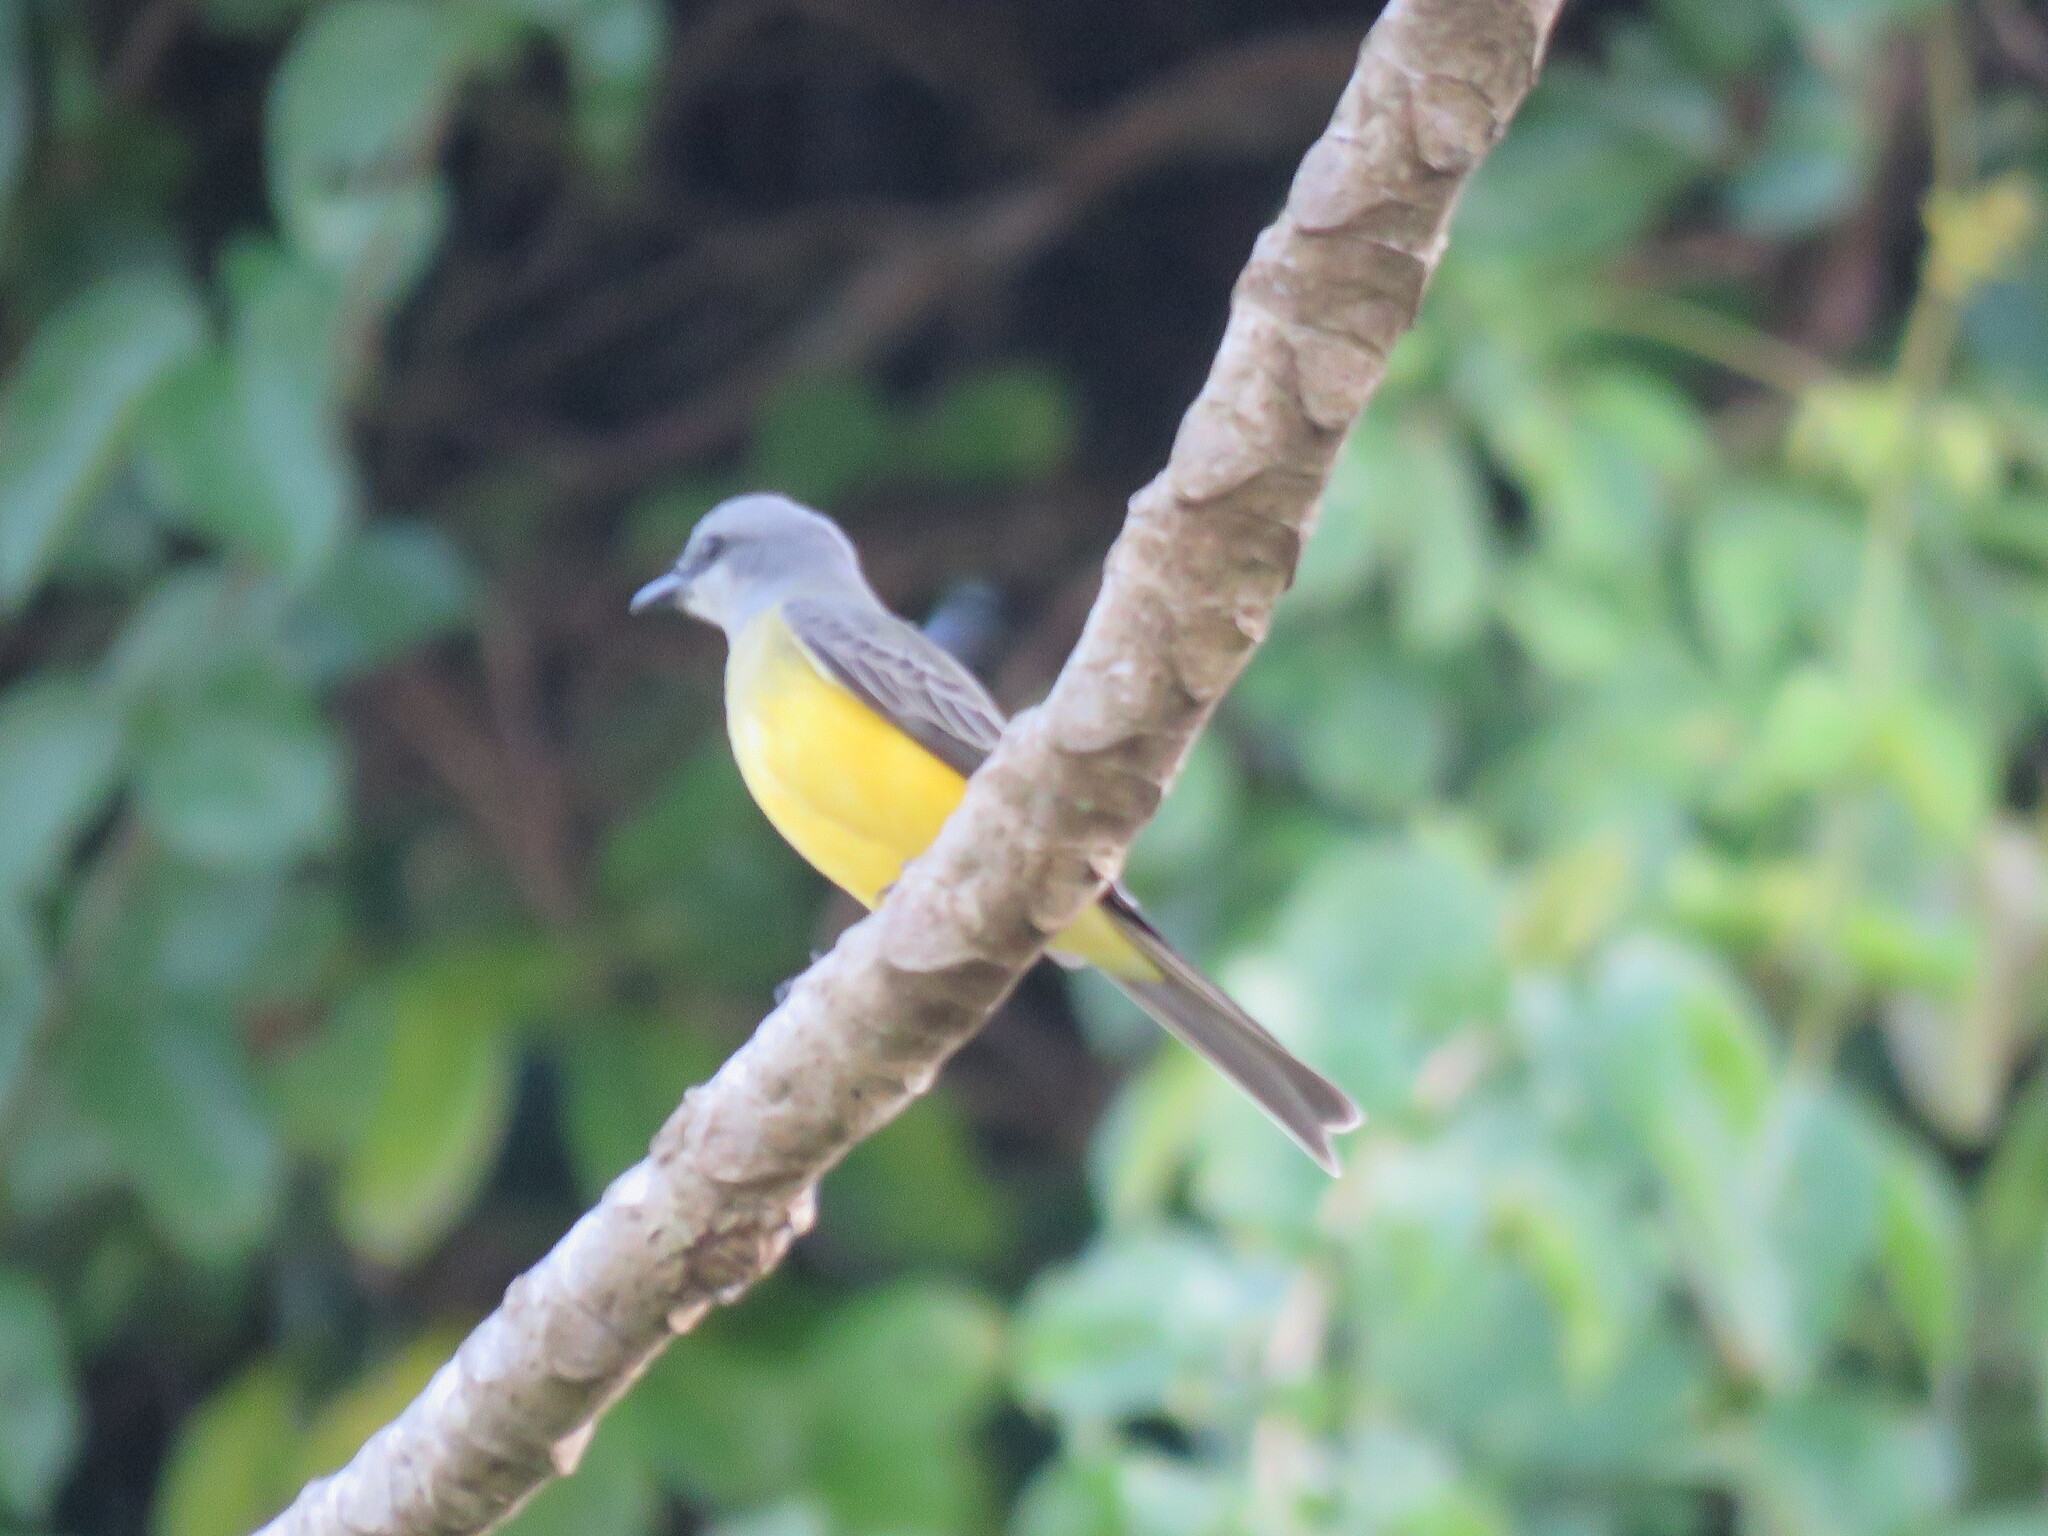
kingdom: Animalia
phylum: Chordata
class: Aves
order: Passeriformes
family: Tyrannidae
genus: Tyrannus
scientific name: Tyrannus melancholicus
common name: Tropical kingbird
